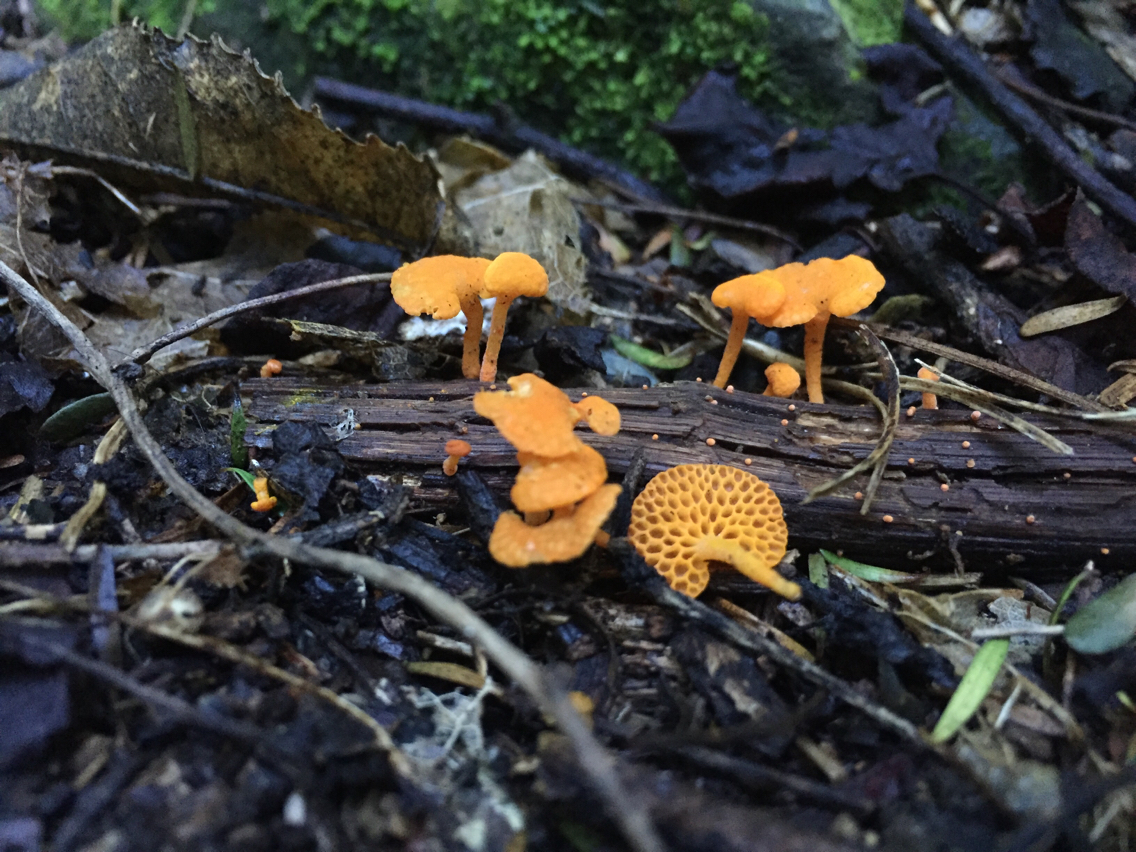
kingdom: Fungi
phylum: Basidiomycota
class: Agaricomycetes
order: Agaricales
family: Mycenaceae
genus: Favolaschia
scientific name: Favolaschia claudopus
